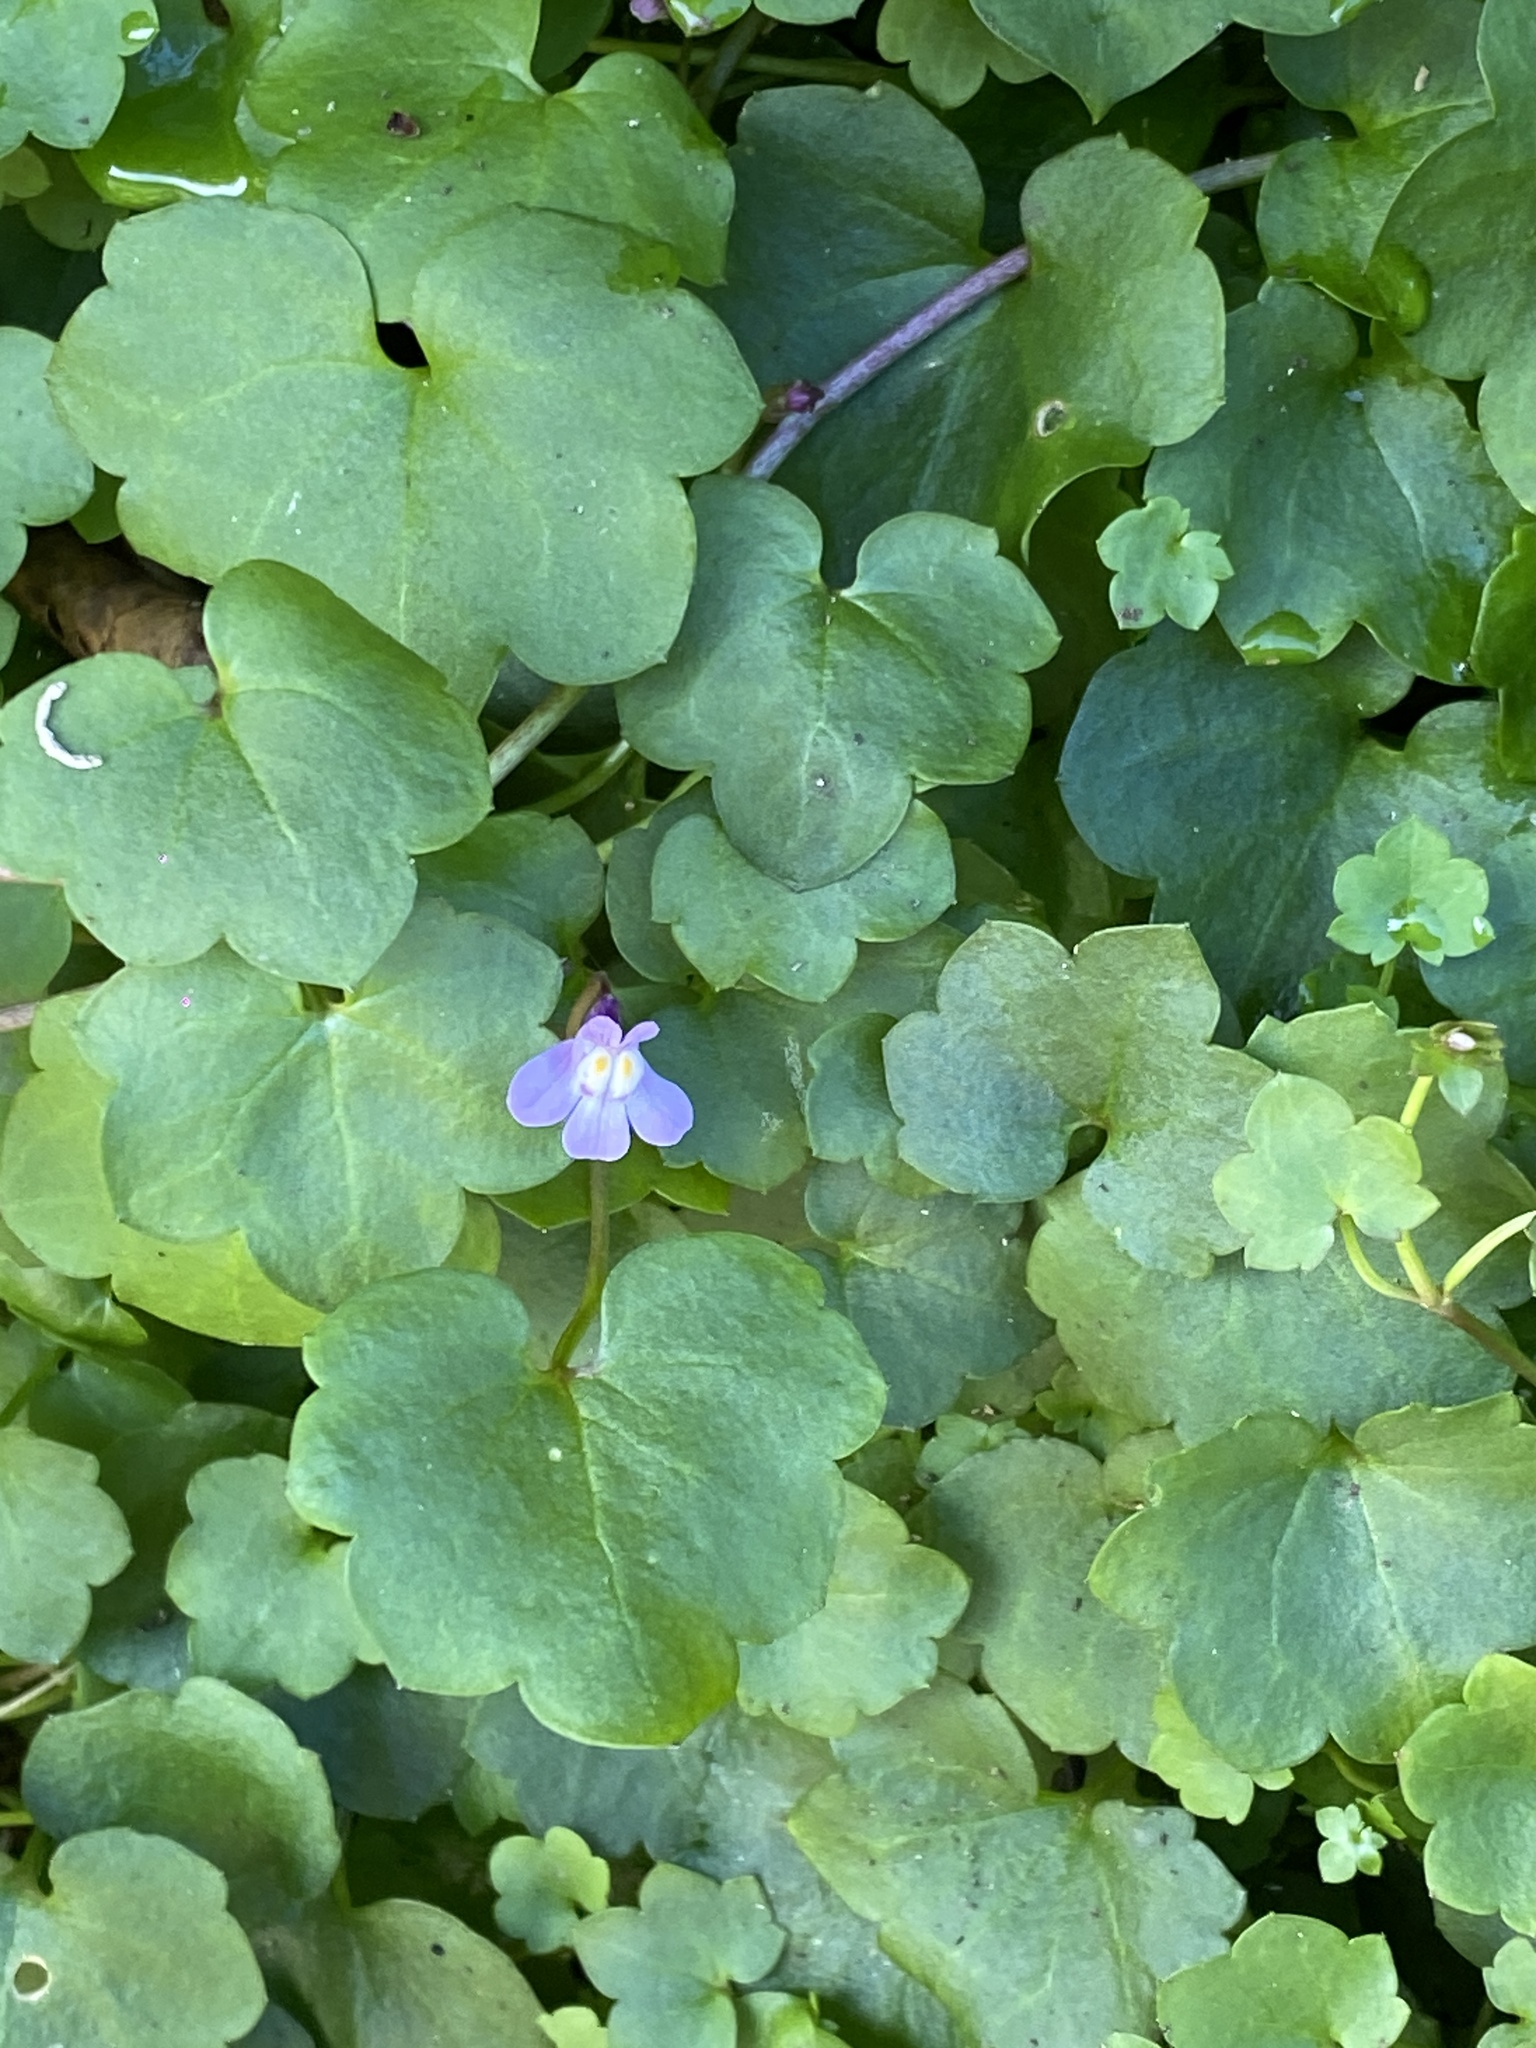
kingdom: Plantae
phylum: Tracheophyta
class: Magnoliopsida
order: Lamiales
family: Plantaginaceae
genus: Cymbalaria
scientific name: Cymbalaria muralis
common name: Ivy-leaved toadflax
